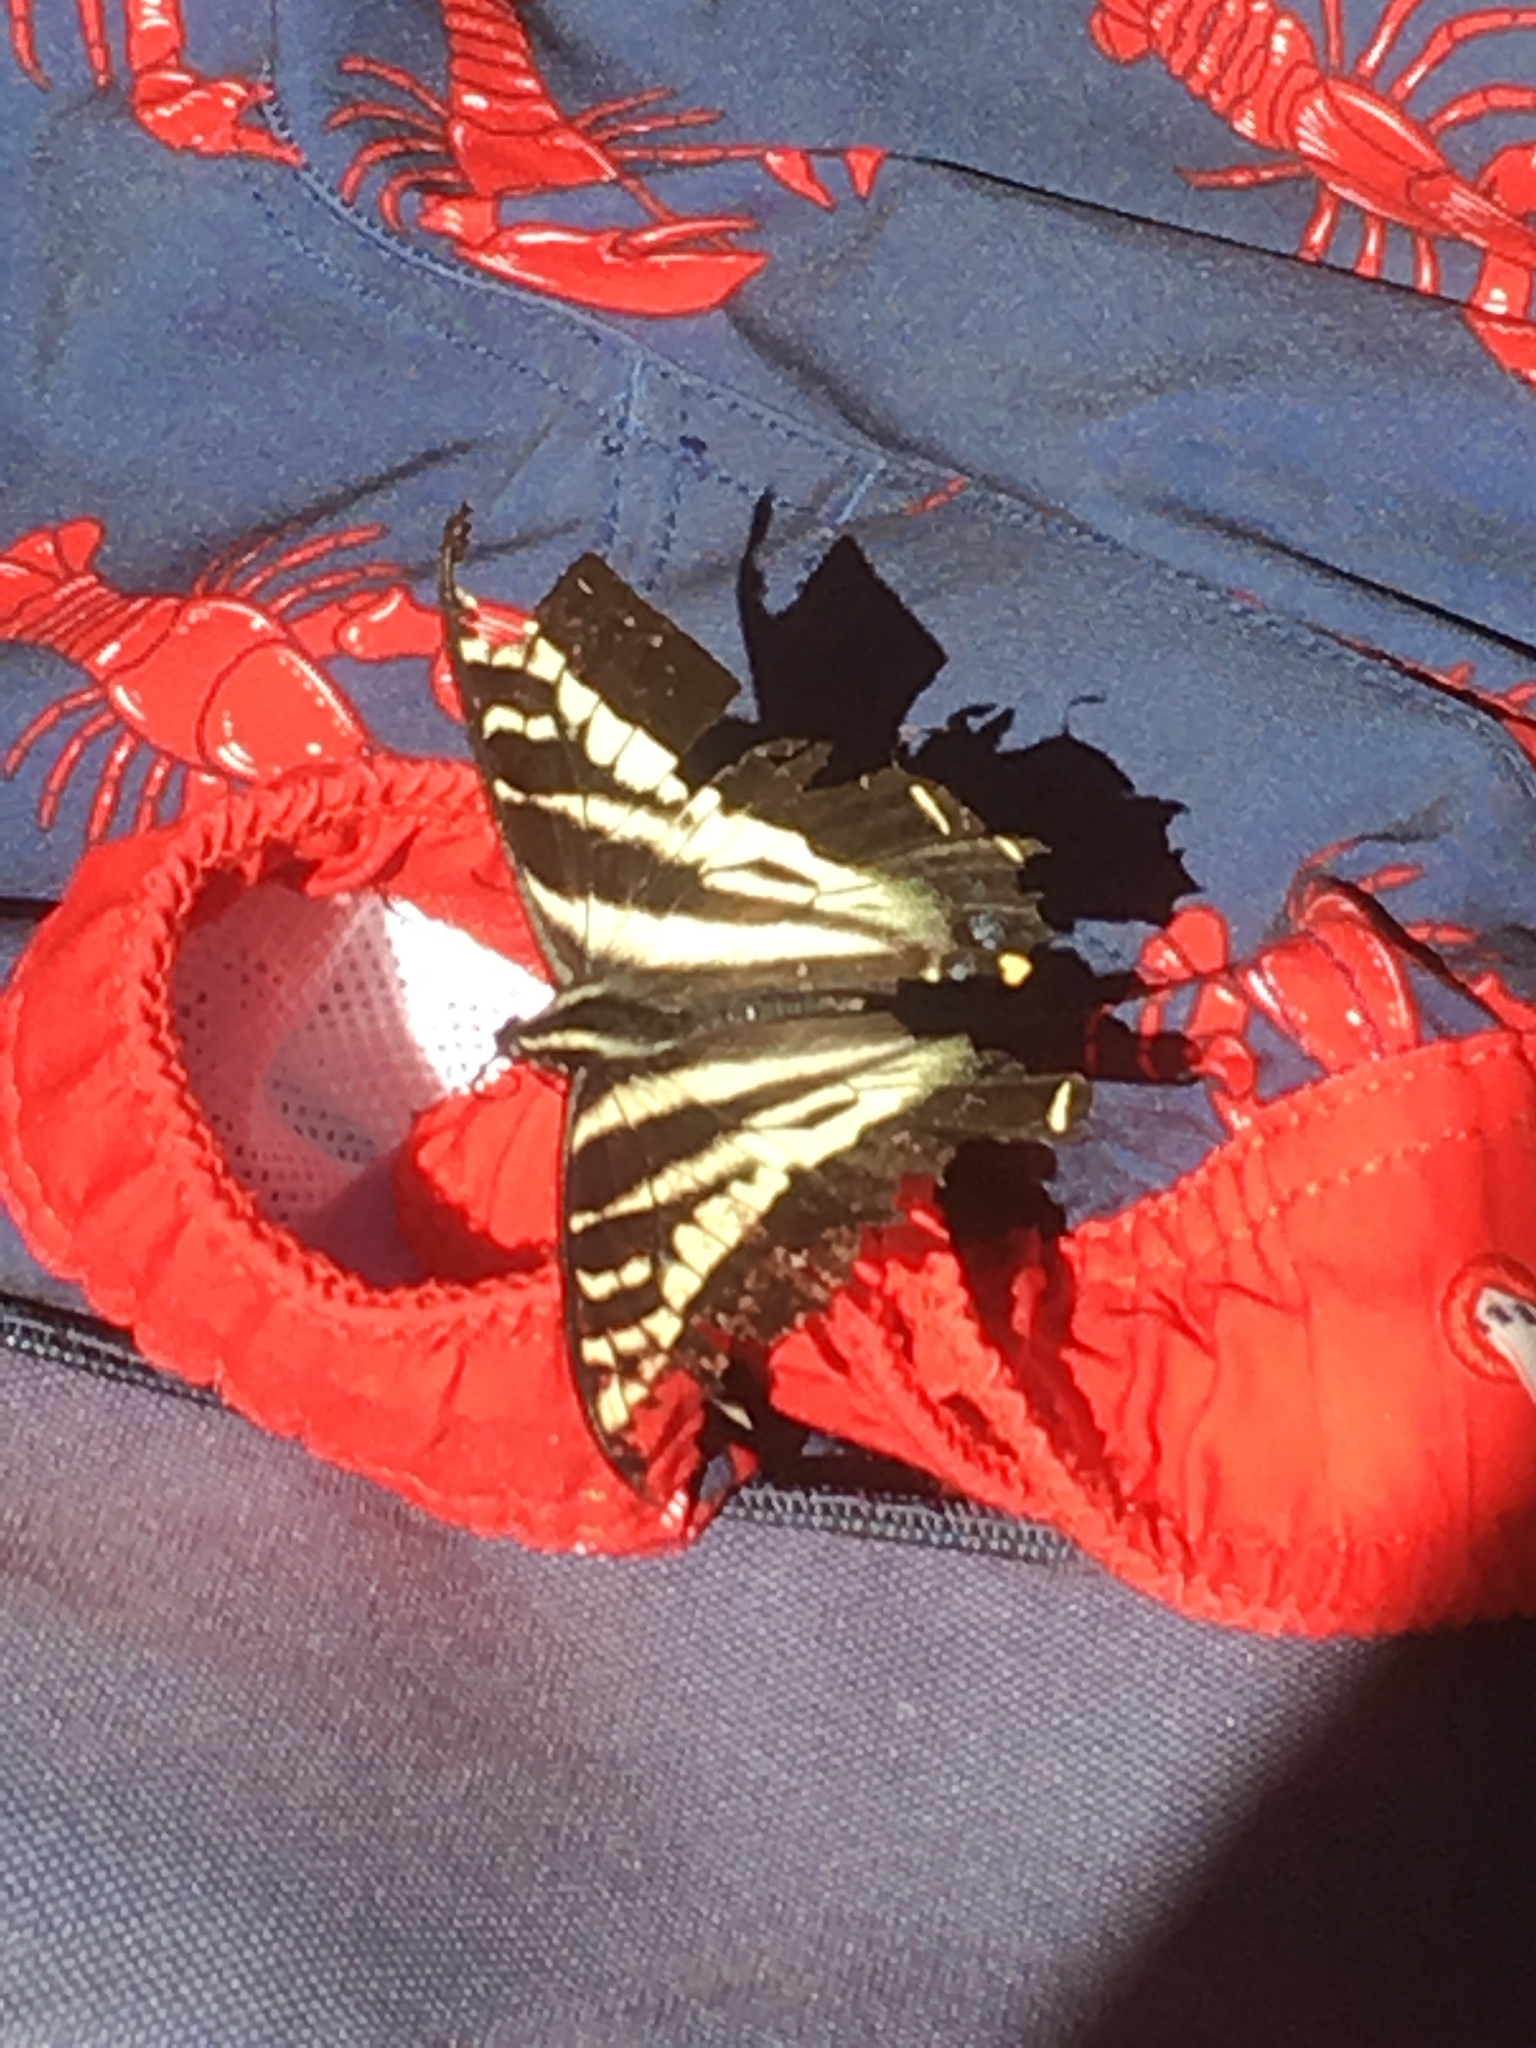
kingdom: Animalia
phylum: Arthropoda
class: Insecta
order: Lepidoptera
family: Papilionidae
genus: Papilio
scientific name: Papilio eurymedon
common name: Pale tiger swallowtail
